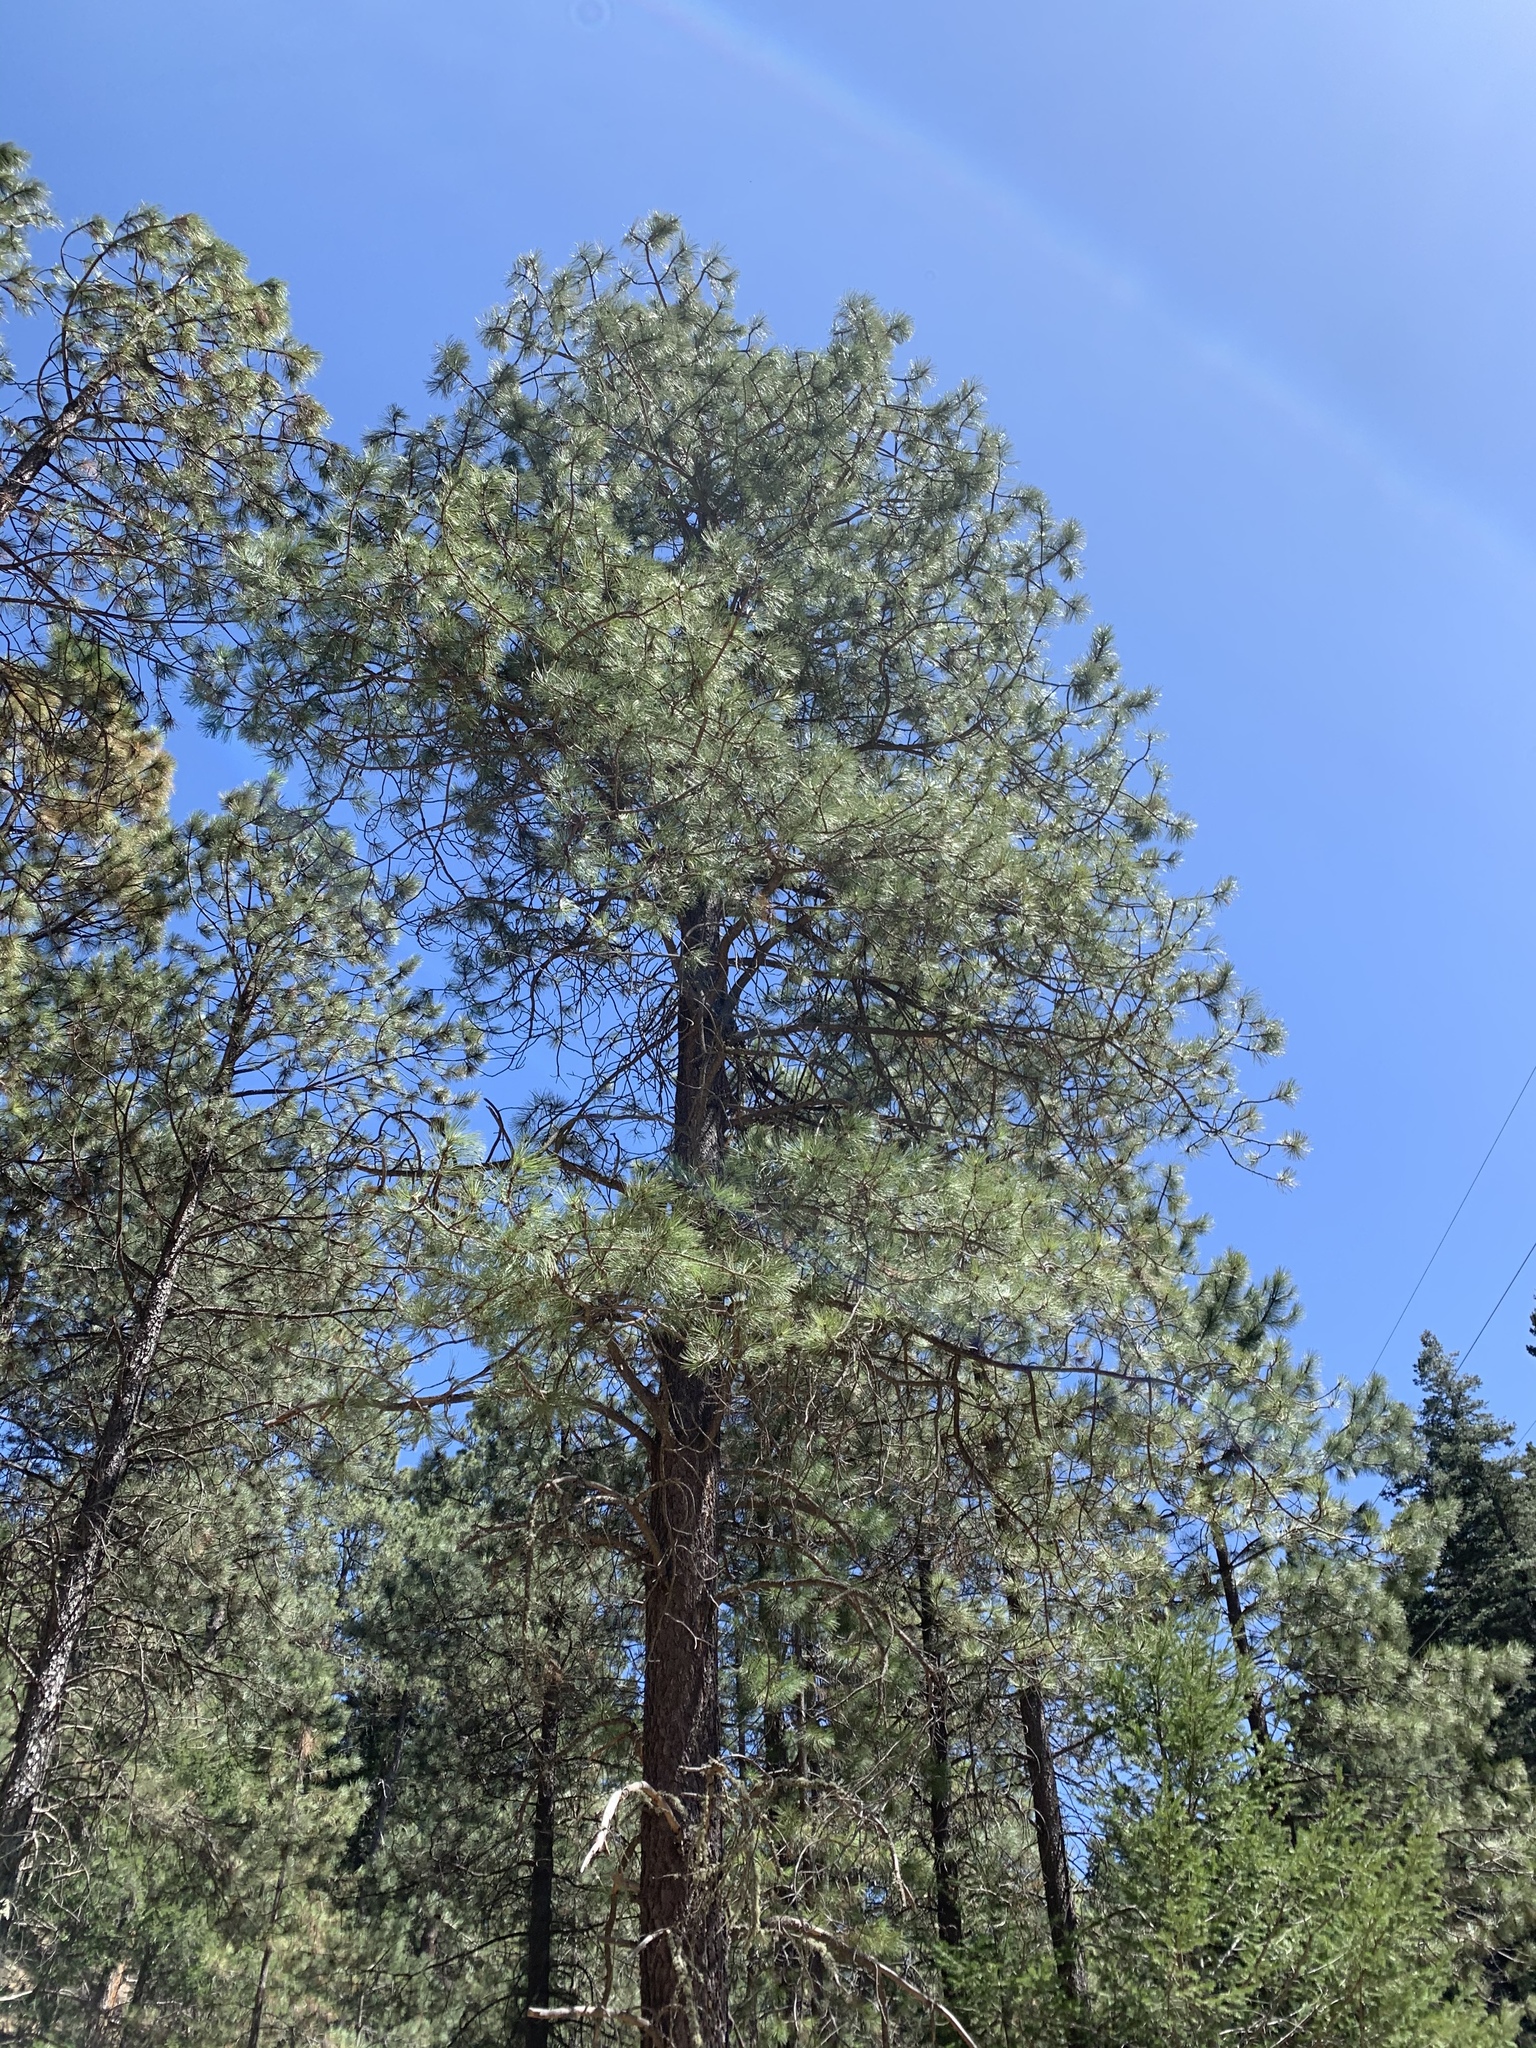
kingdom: Plantae
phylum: Tracheophyta
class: Pinopsida
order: Pinales
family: Pinaceae
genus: Pinus
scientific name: Pinus ponderosa
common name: Western yellow-pine
